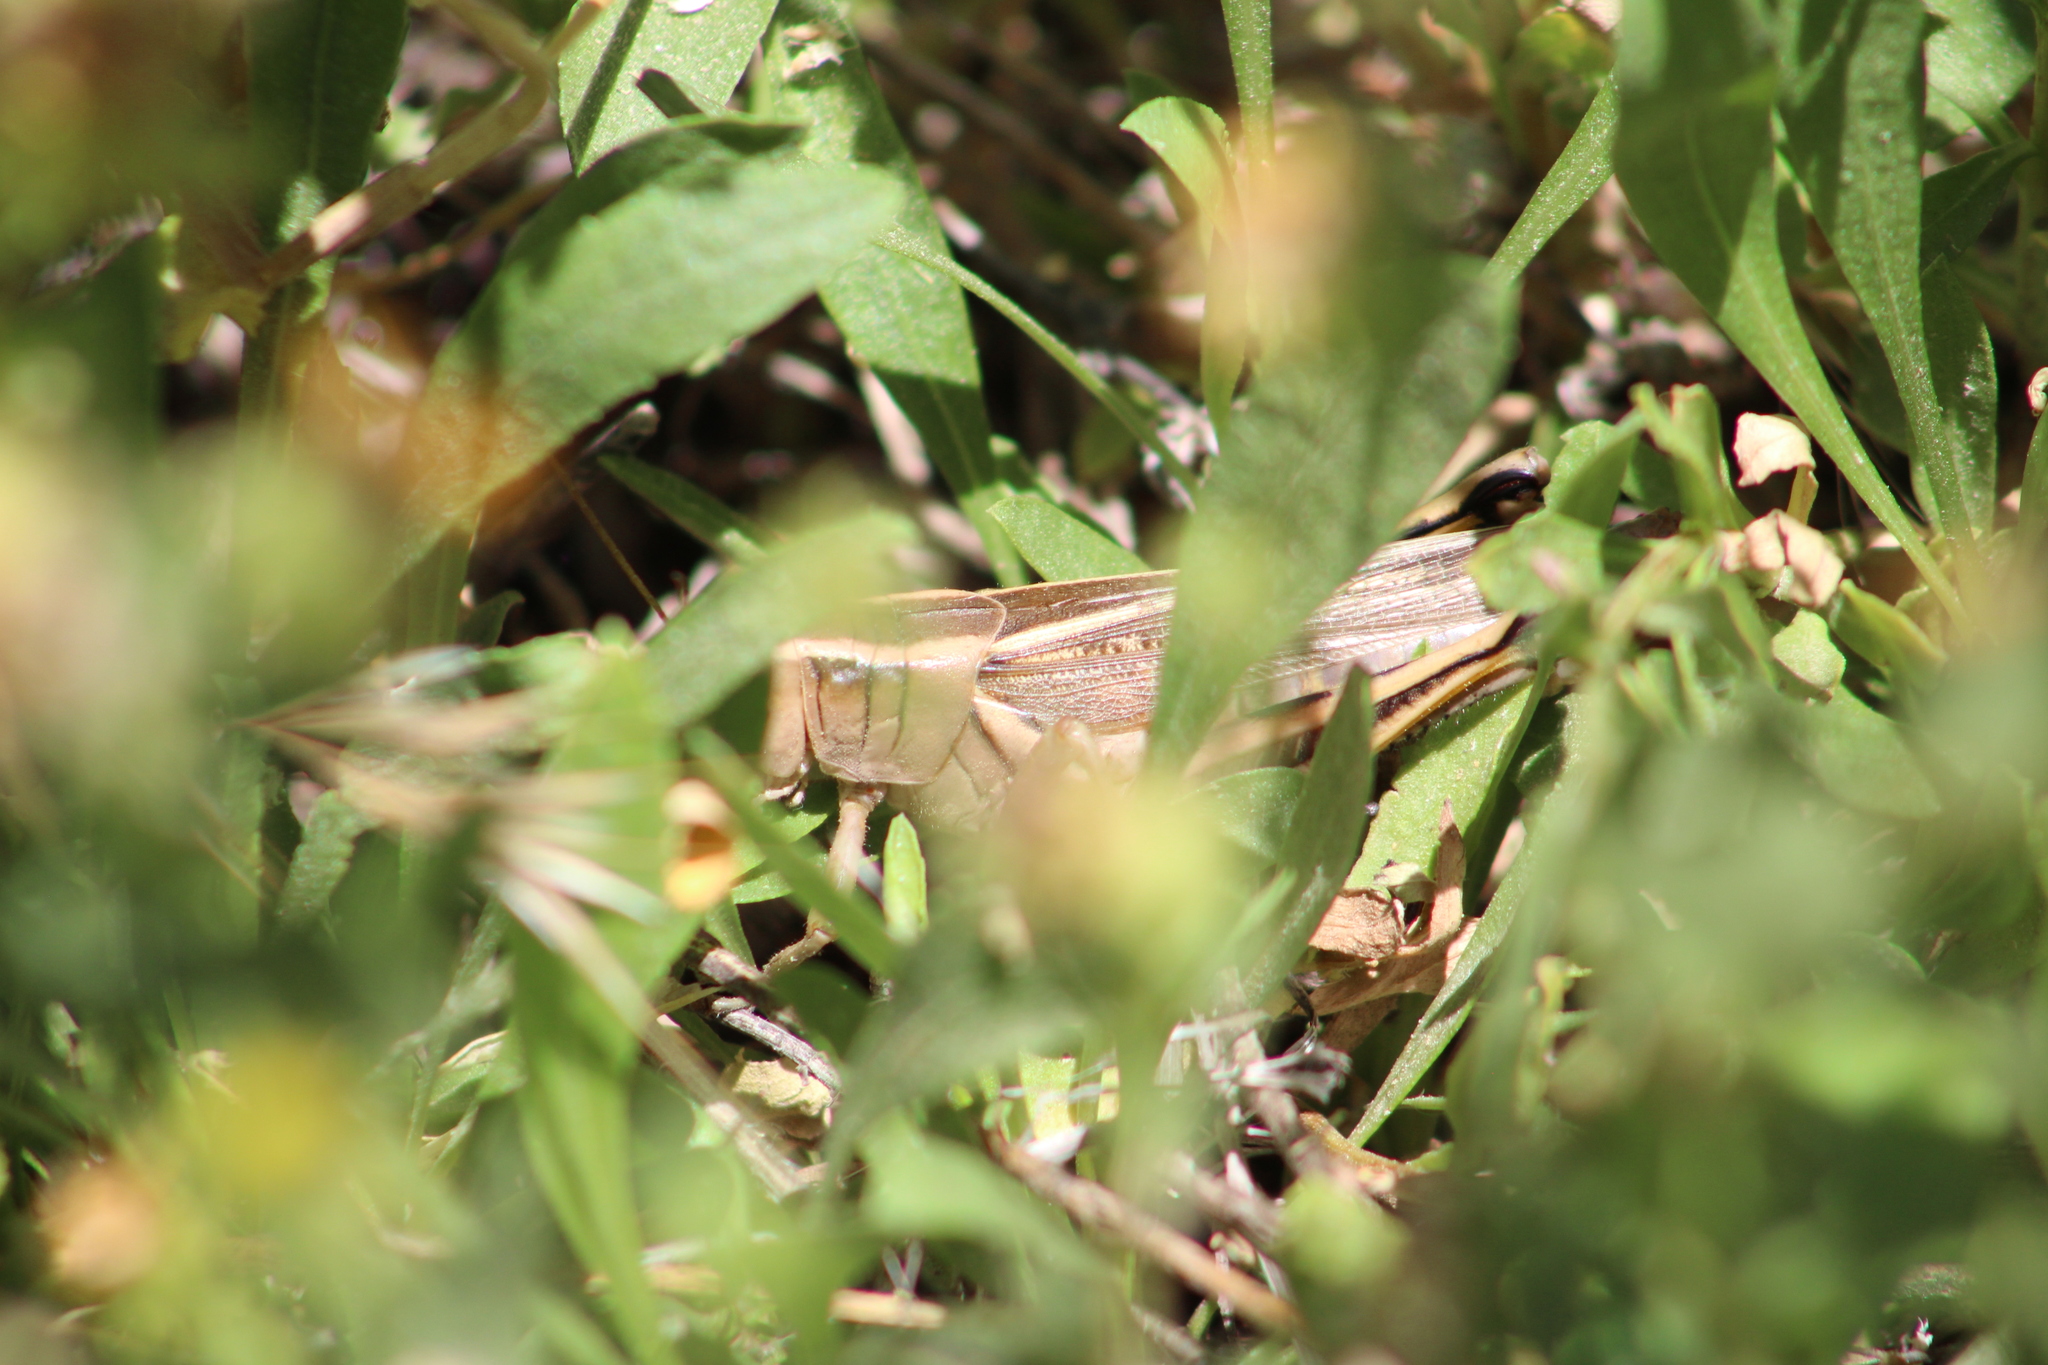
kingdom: Animalia
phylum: Arthropoda
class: Insecta
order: Orthoptera
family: Acrididae
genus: Melanoplus
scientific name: Melanoplus bivittatus
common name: Two-striped grasshopper
